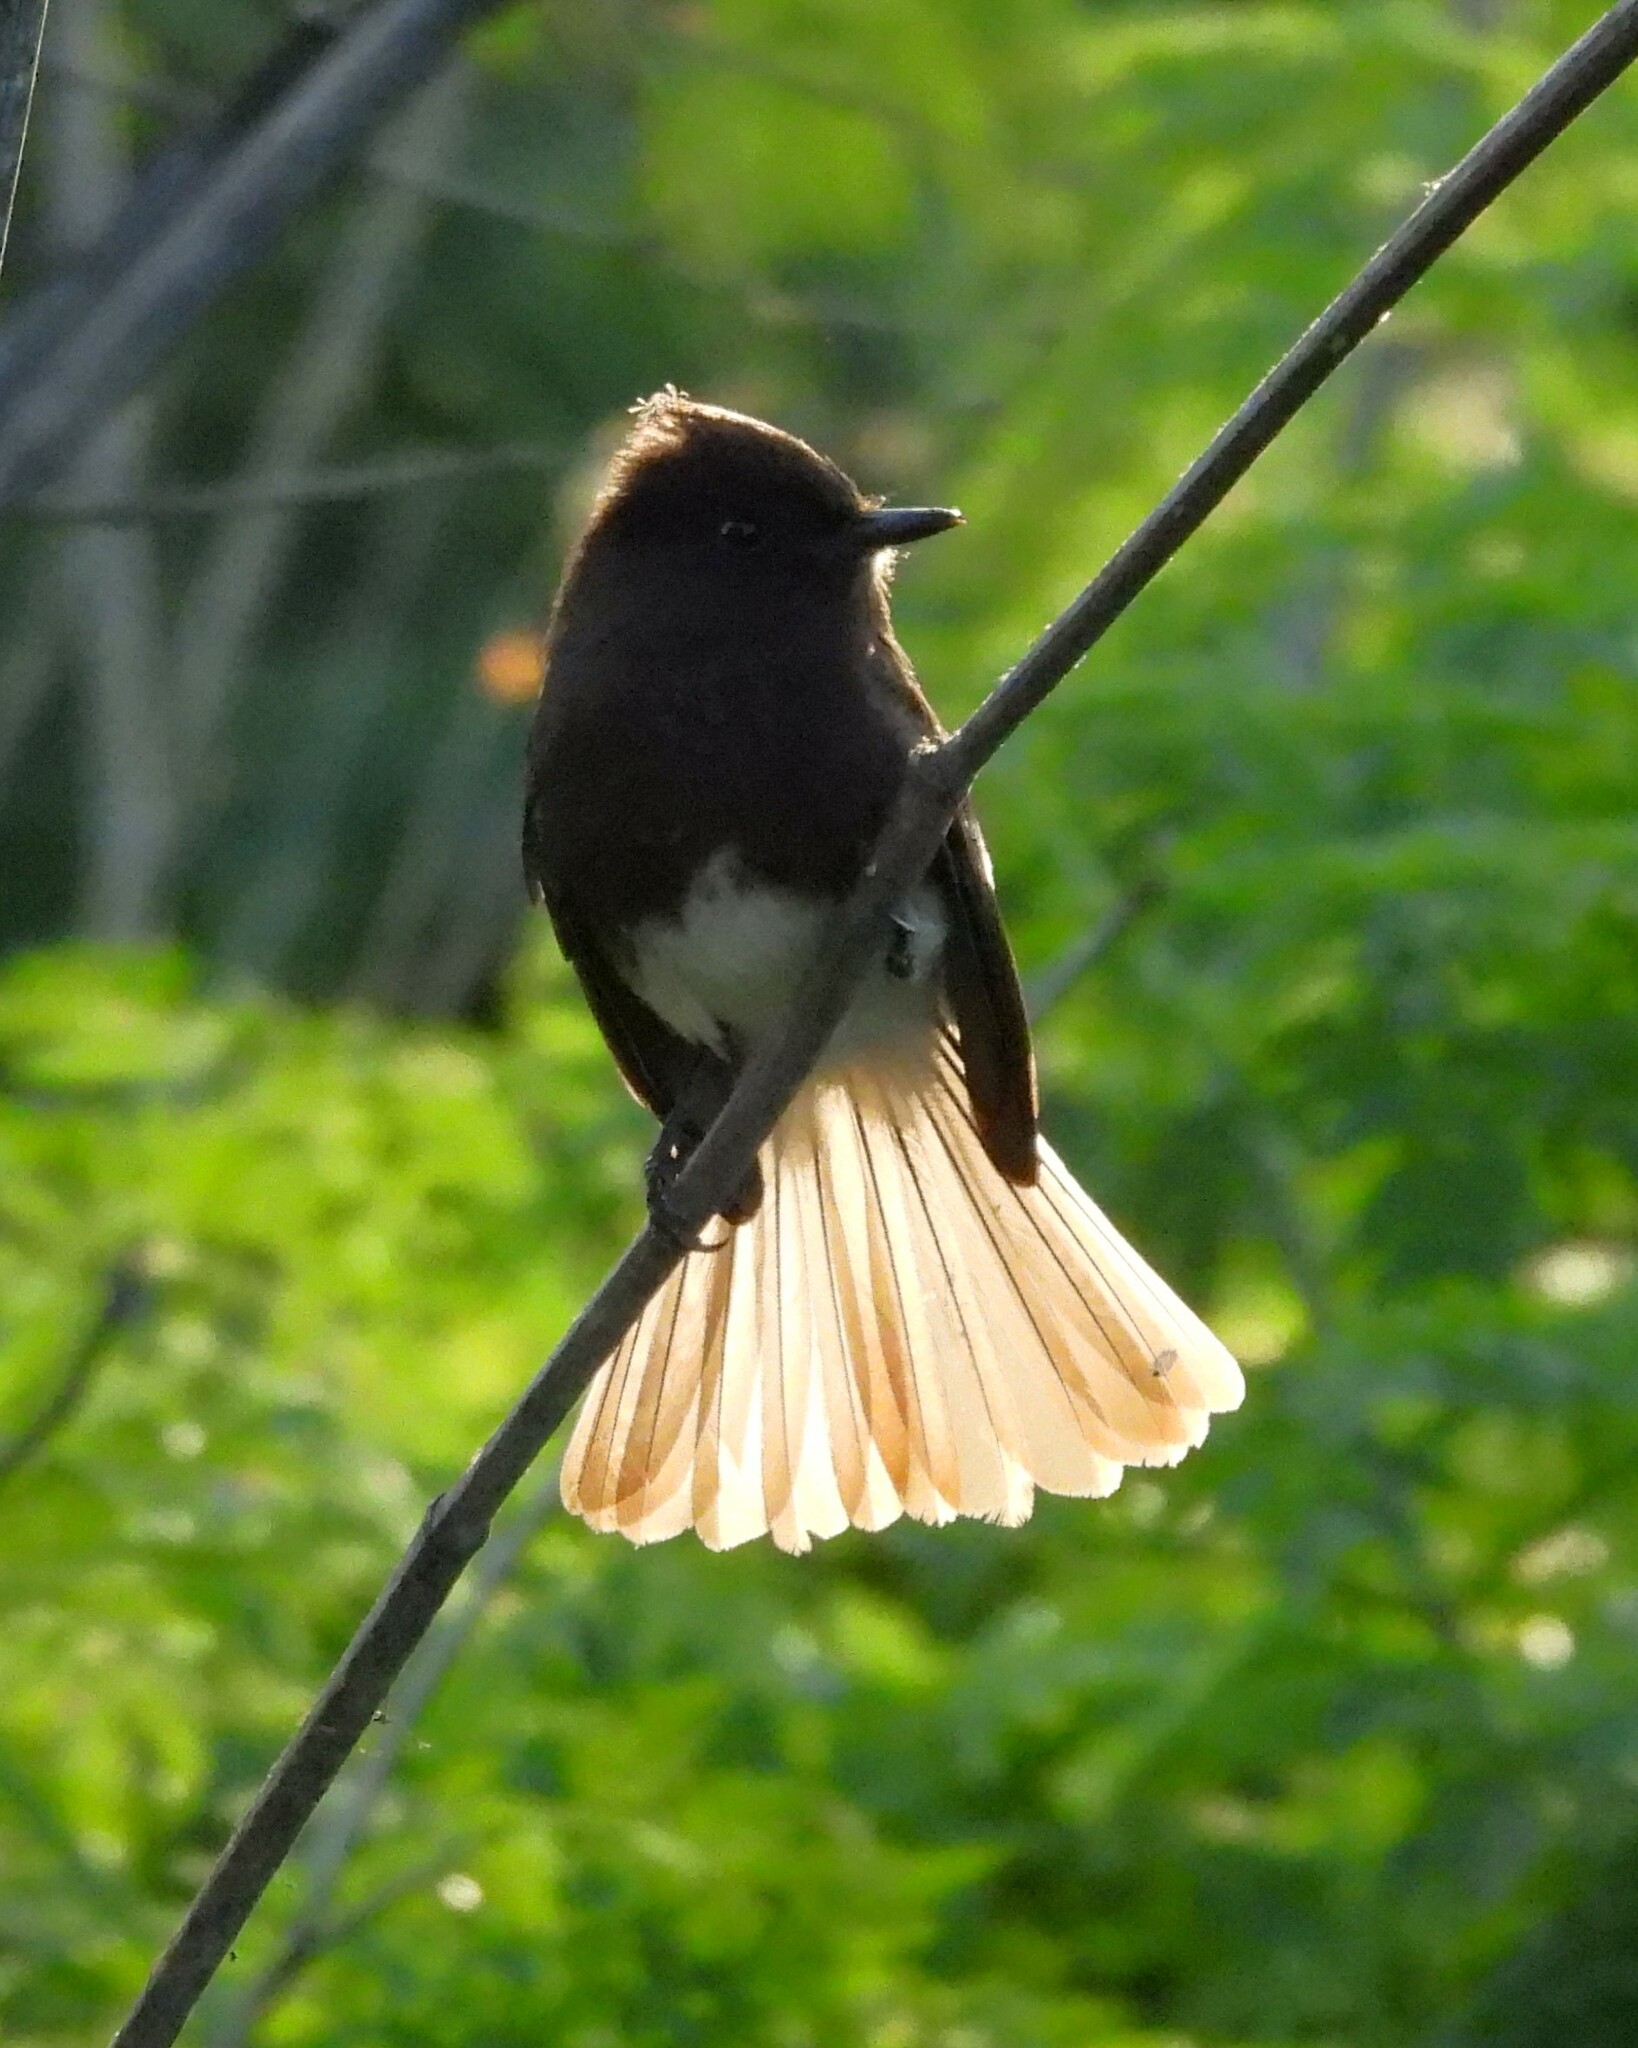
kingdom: Animalia
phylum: Chordata
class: Aves
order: Passeriformes
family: Tyrannidae
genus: Sayornis
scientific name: Sayornis nigricans
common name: Black phoebe
